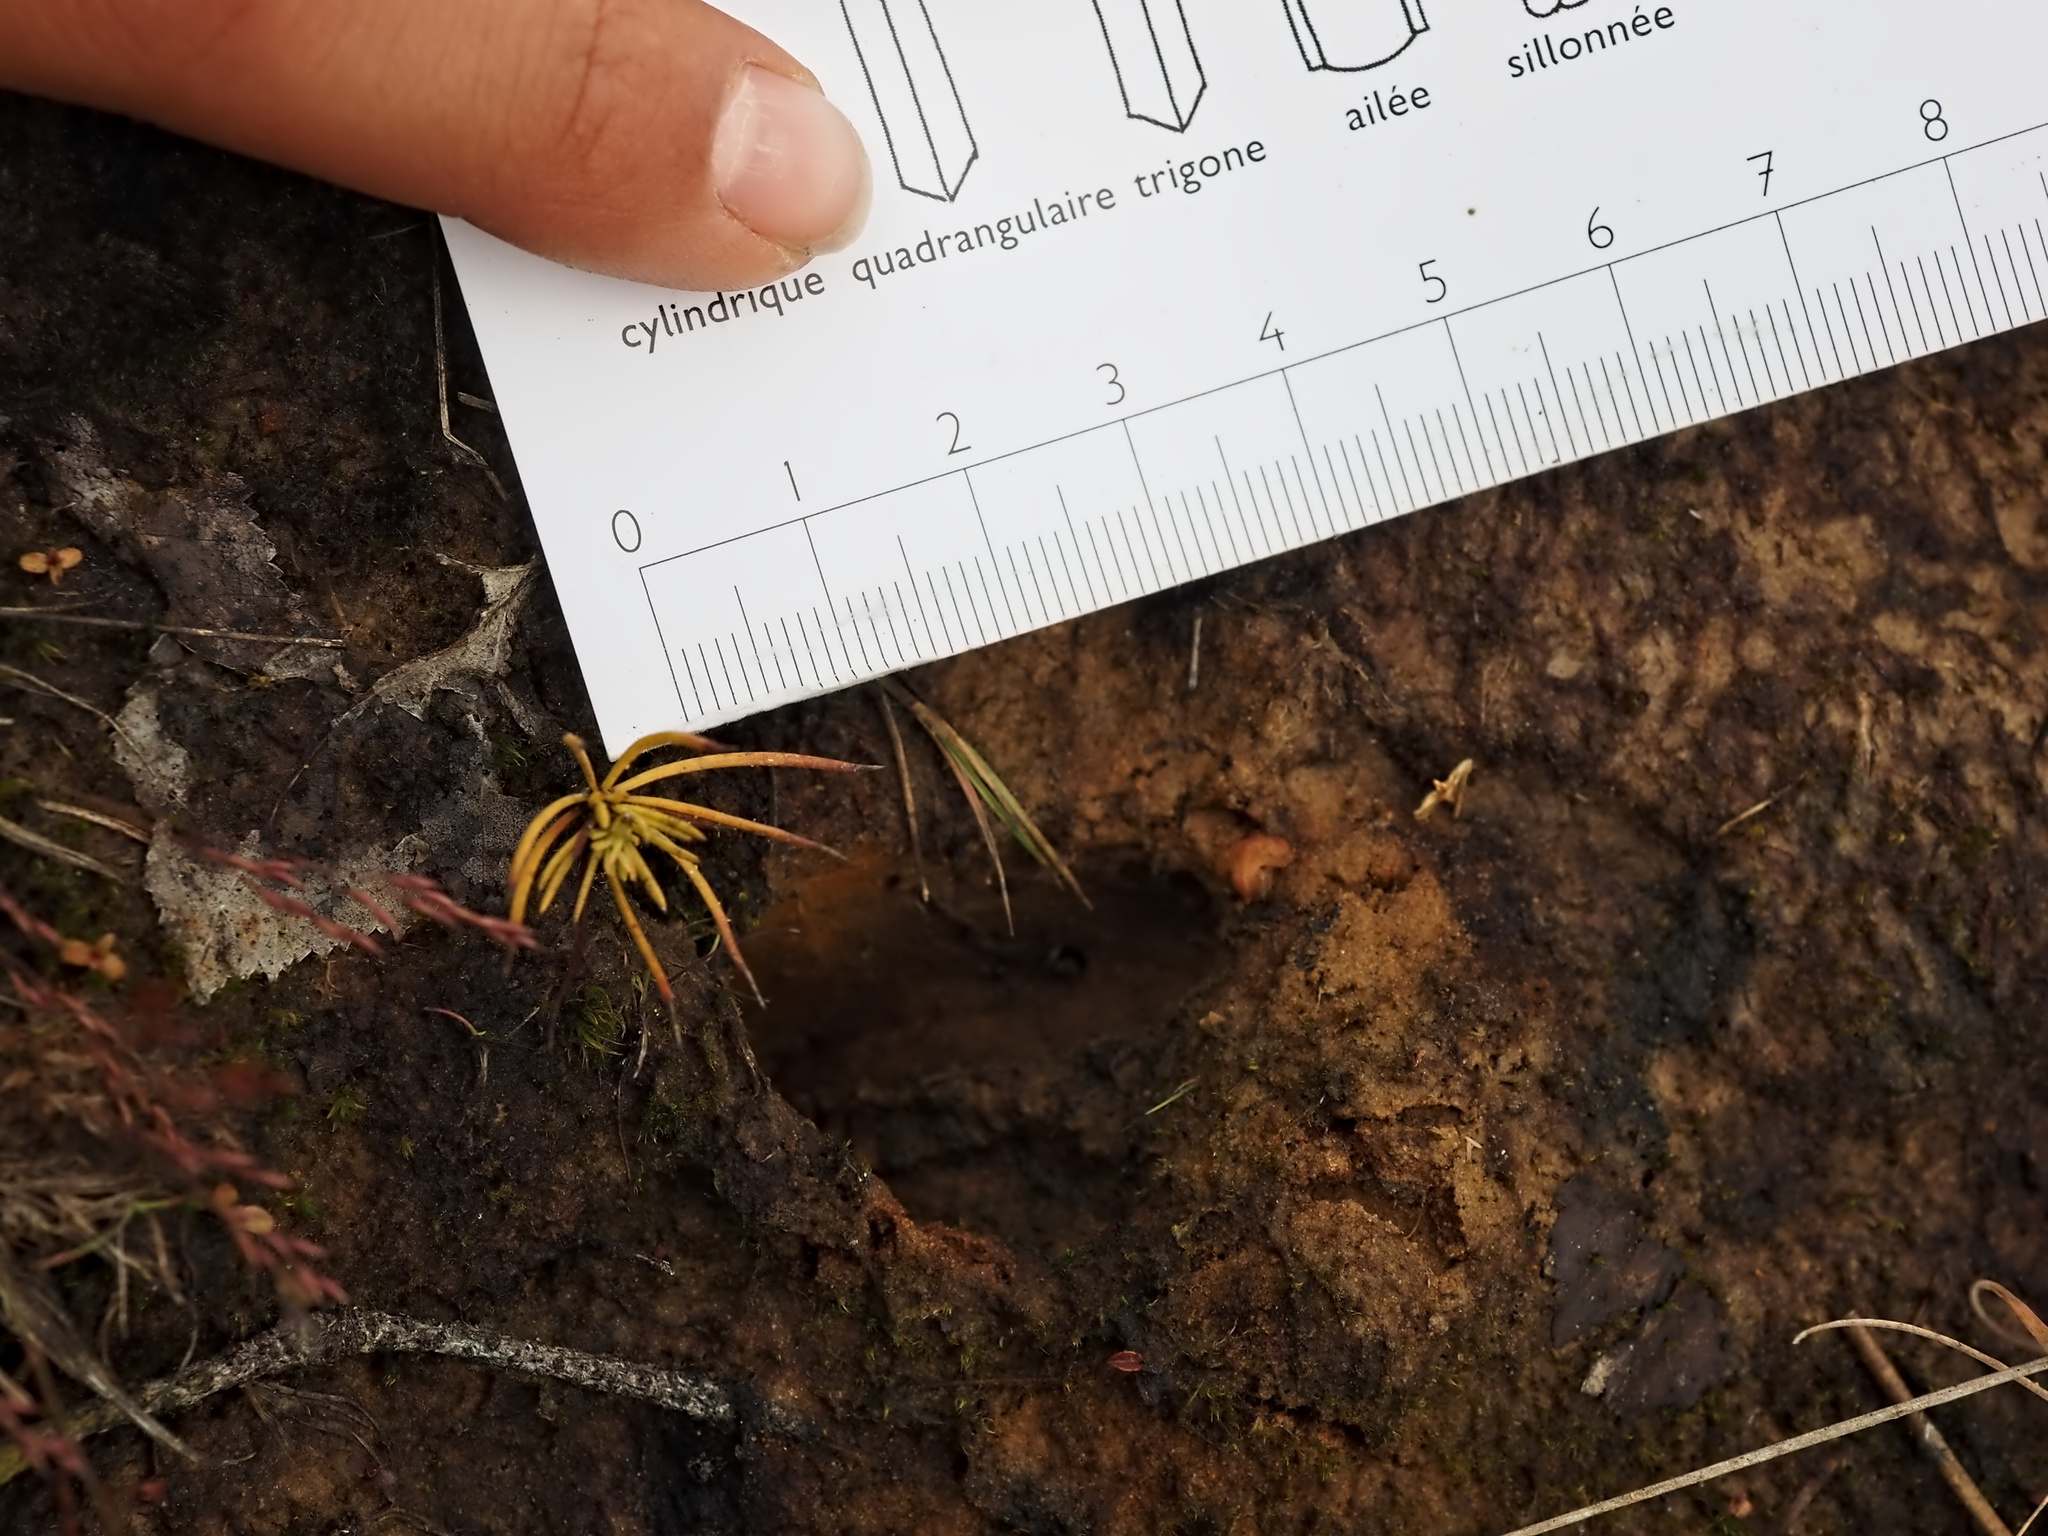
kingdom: Animalia
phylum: Chordata
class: Mammalia
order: Artiodactyla
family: Cervidae
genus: Capreolus
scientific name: Capreolus capreolus
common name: Western roe deer
